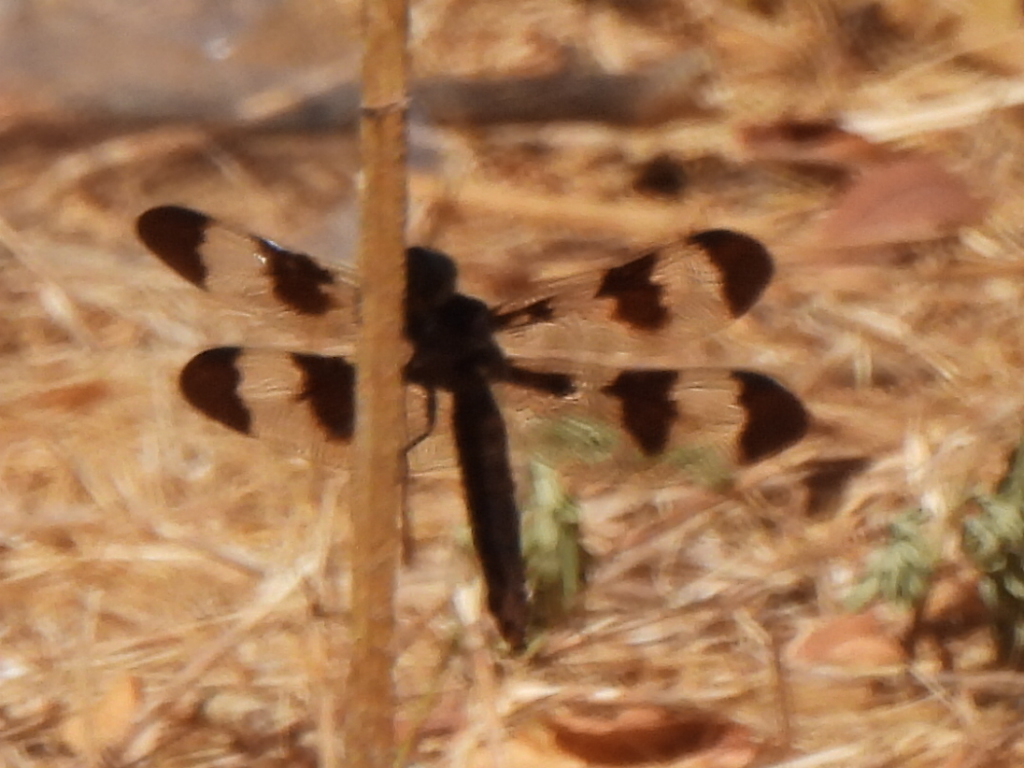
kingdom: Animalia
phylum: Arthropoda
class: Insecta
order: Odonata
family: Libellulidae
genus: Plathemis
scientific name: Plathemis lydia
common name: Common whitetail
